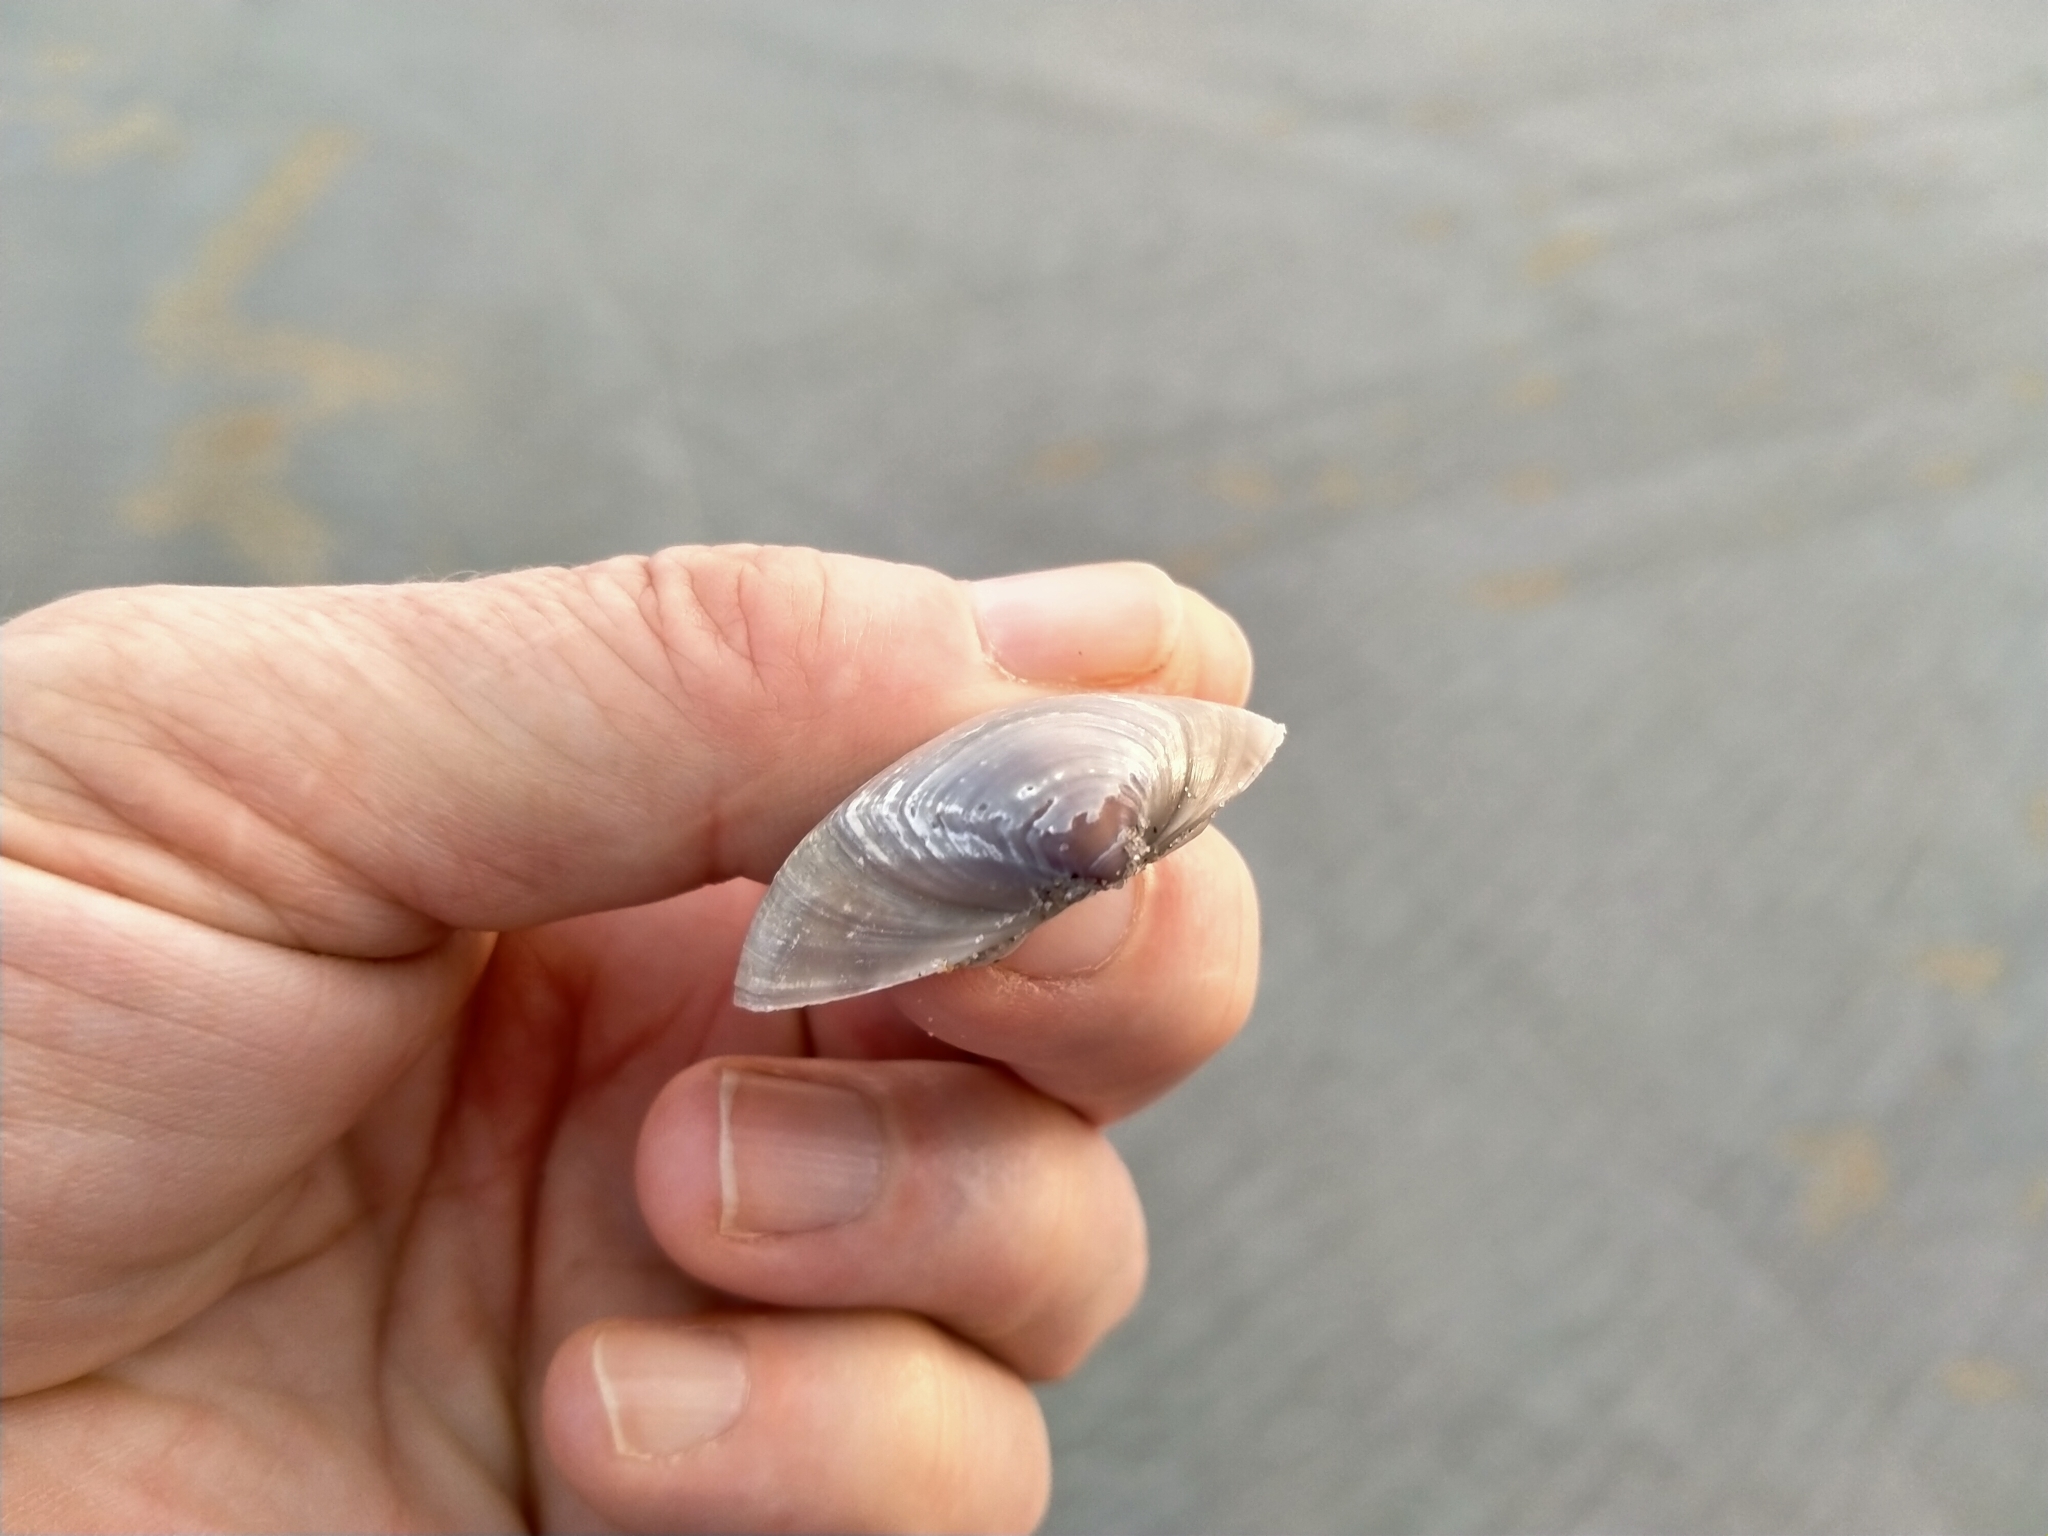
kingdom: Animalia
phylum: Mollusca
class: Bivalvia
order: Venerida
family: Mactridae
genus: Crassula
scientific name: Crassula aequilatera
